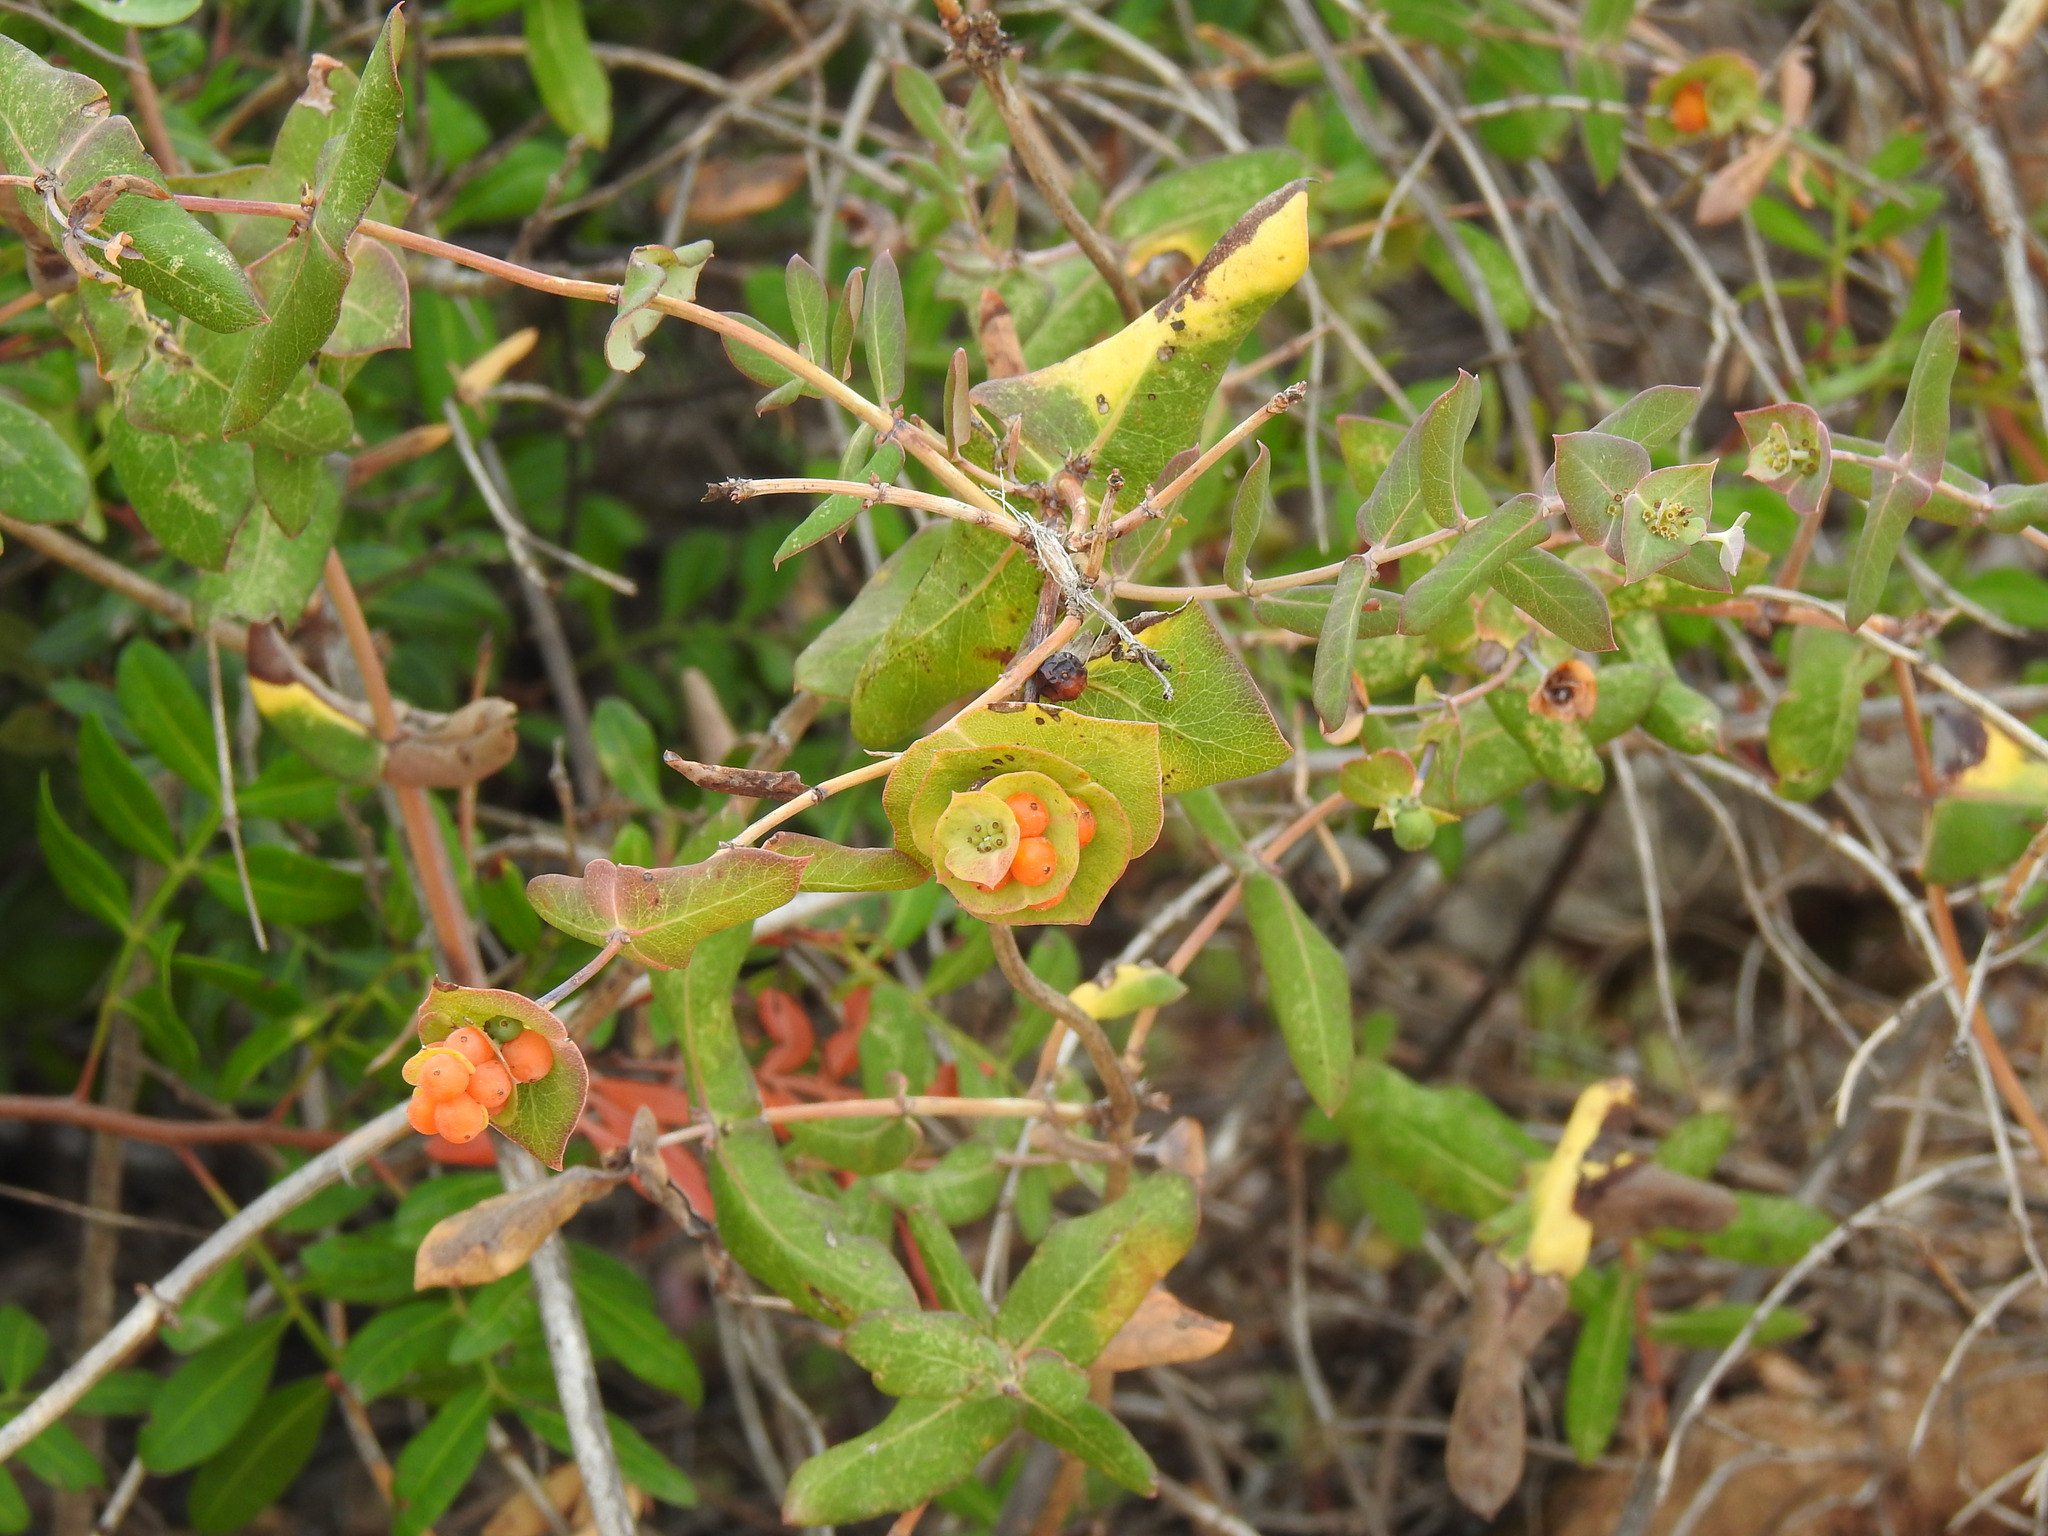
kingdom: Plantae
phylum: Tracheophyta
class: Magnoliopsida
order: Dipsacales
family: Caprifoliaceae
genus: Lonicera
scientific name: Lonicera implexa
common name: Minorca honeysuckle
